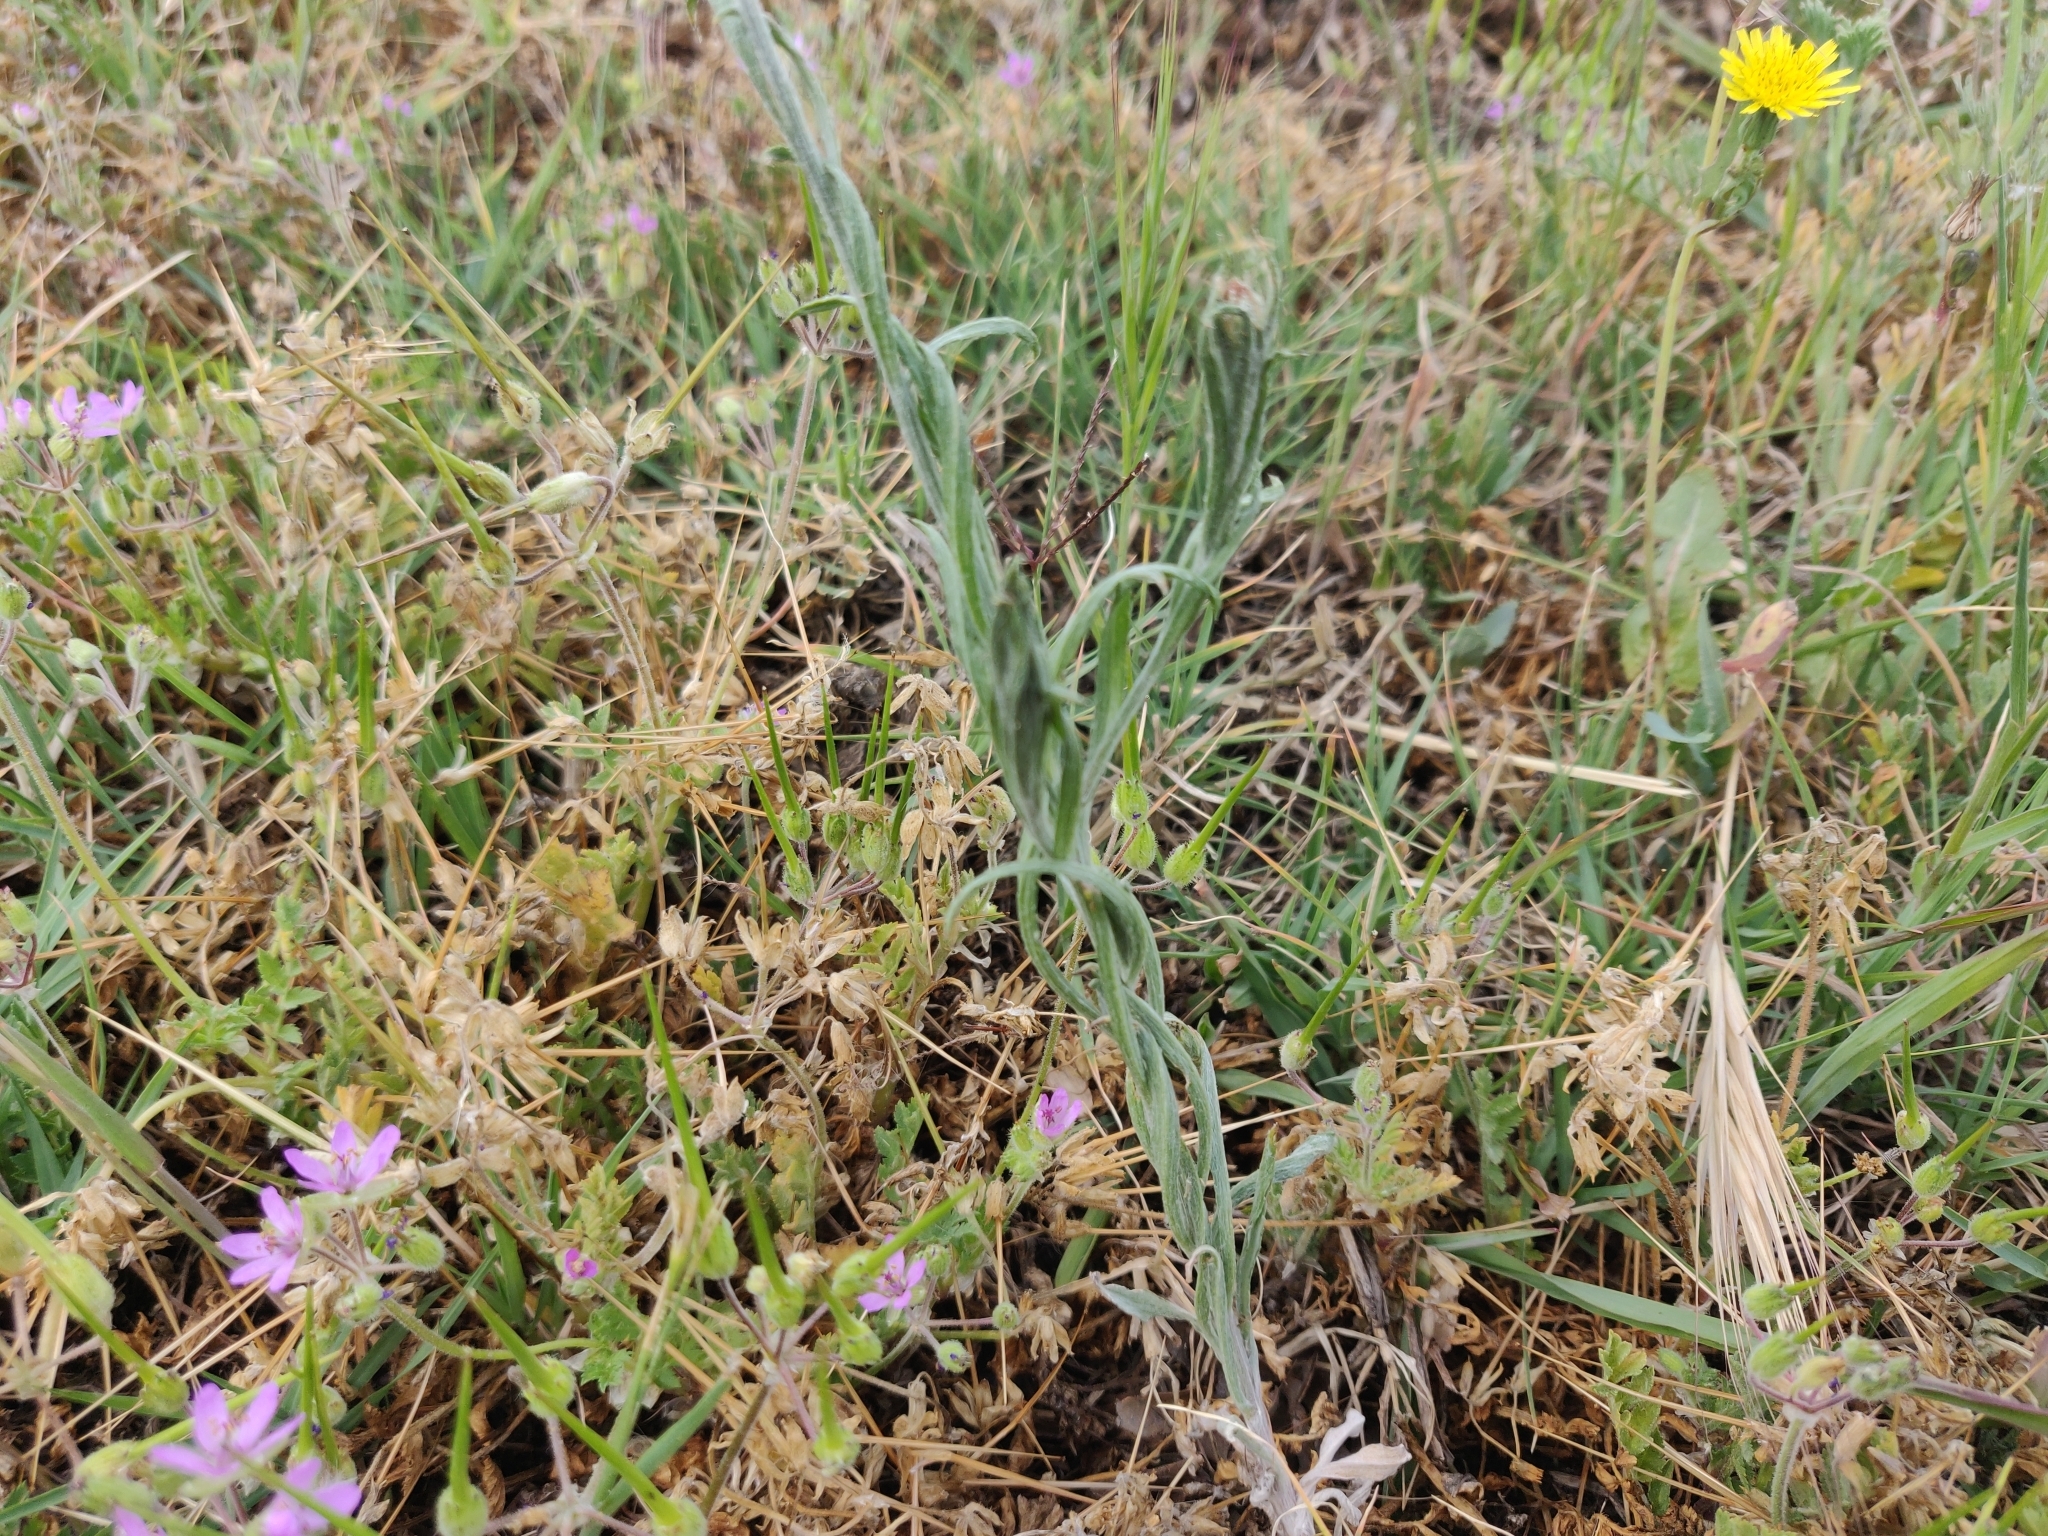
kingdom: Plantae
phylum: Tracheophyta
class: Magnoliopsida
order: Asterales
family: Asteraceae
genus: Centaurea
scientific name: Centaurea cyanus
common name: Cornflower
